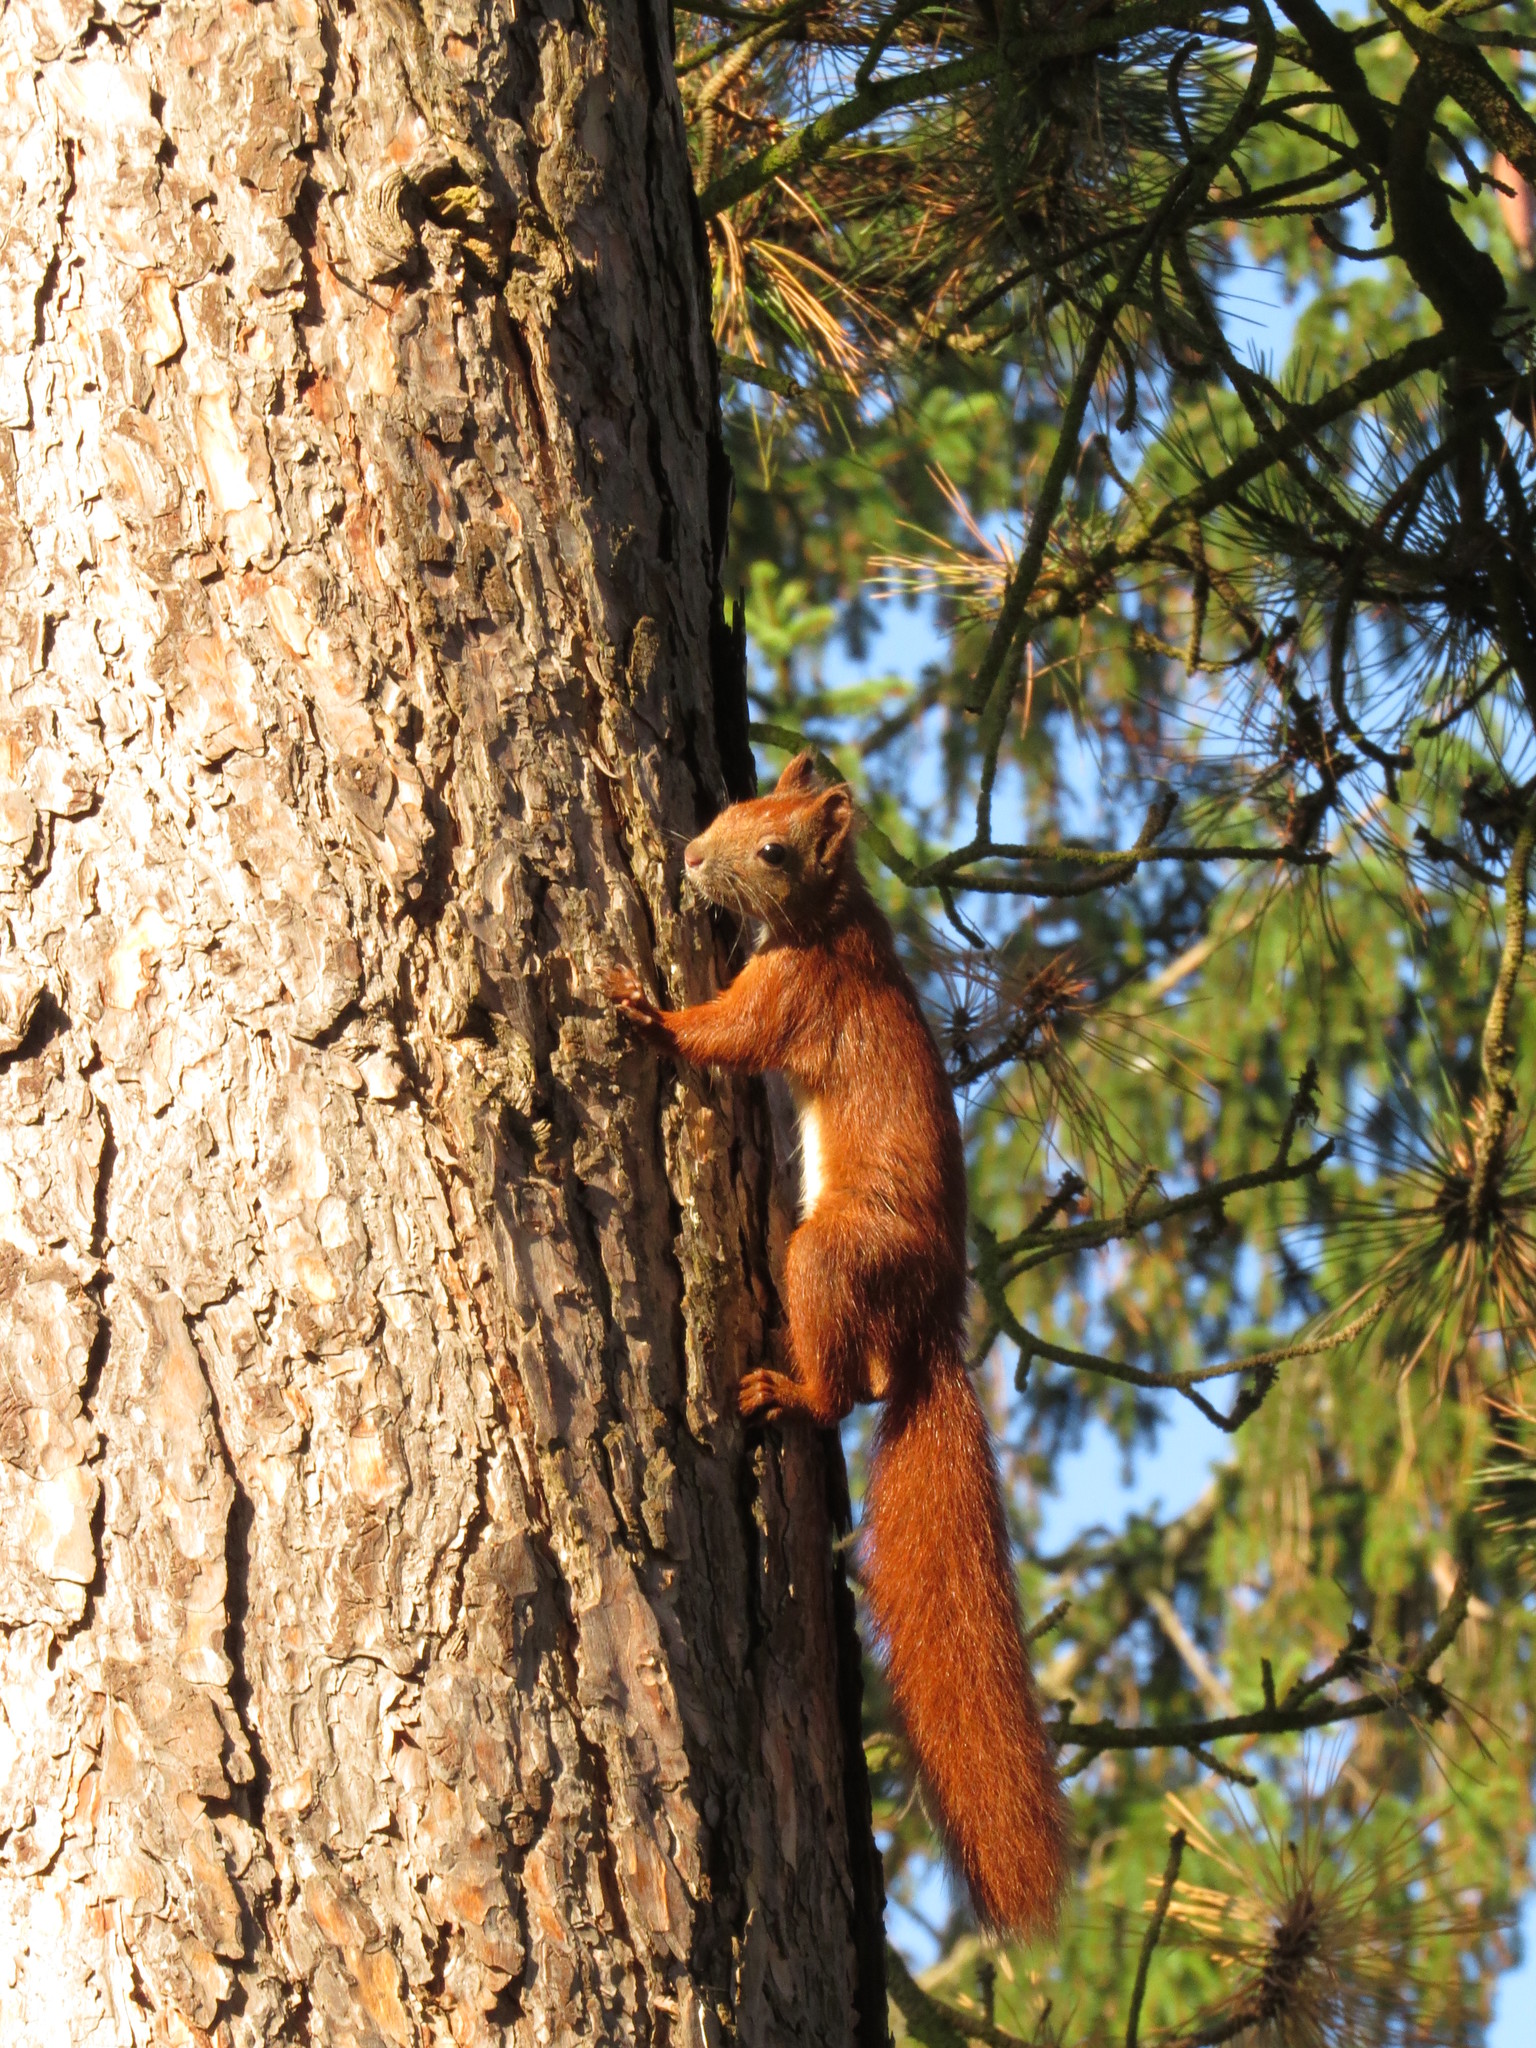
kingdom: Animalia
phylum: Chordata
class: Mammalia
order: Rodentia
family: Sciuridae
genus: Sciurus
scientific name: Sciurus vulgaris
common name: Eurasian red squirrel
